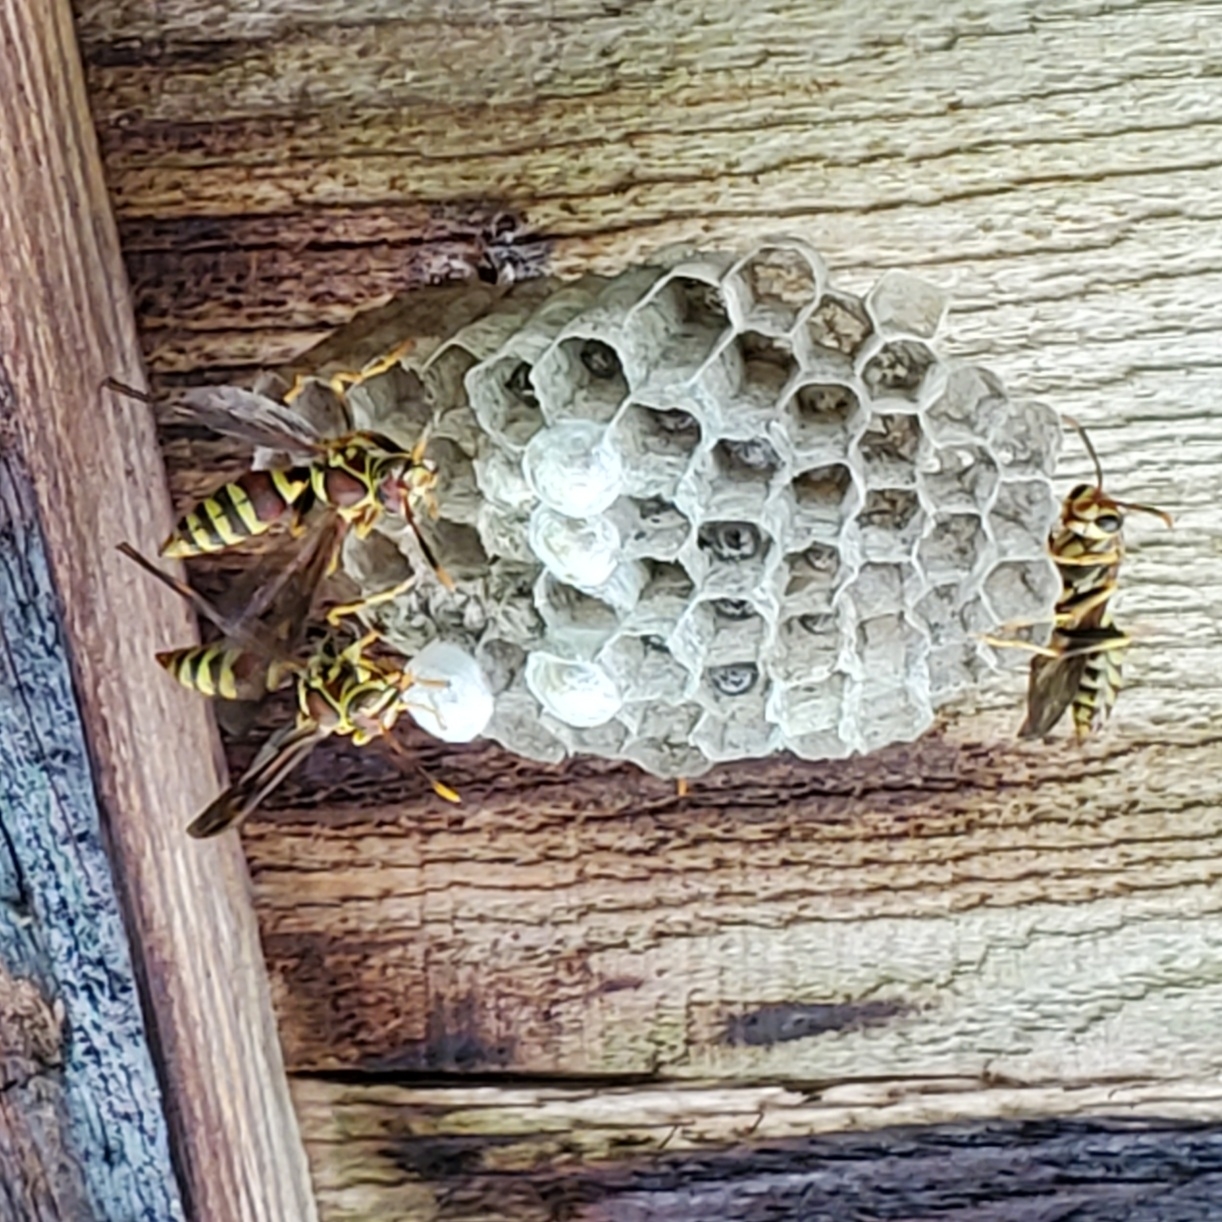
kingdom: Animalia
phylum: Arthropoda
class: Insecta
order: Hymenoptera
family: Eumenidae
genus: Polistes
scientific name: Polistes exclamans
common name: Paper wasp
